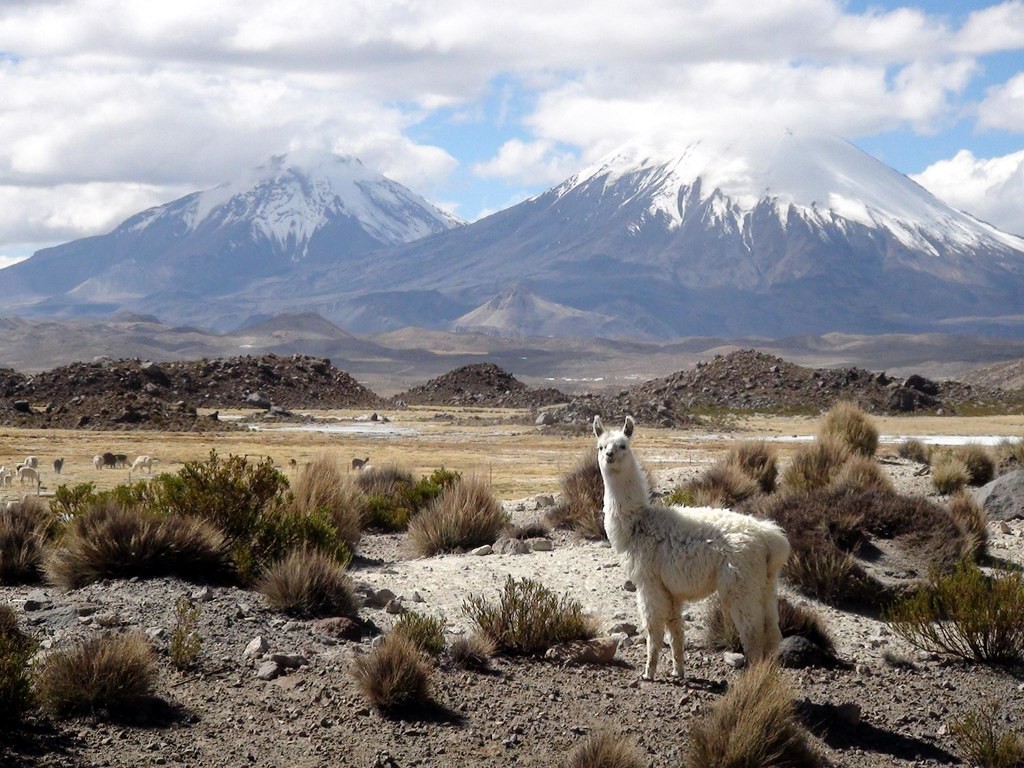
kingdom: Animalia
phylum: Chordata
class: Mammalia
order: Artiodactyla
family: Camelidae
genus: Lama
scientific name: Lama glama
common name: Llama
